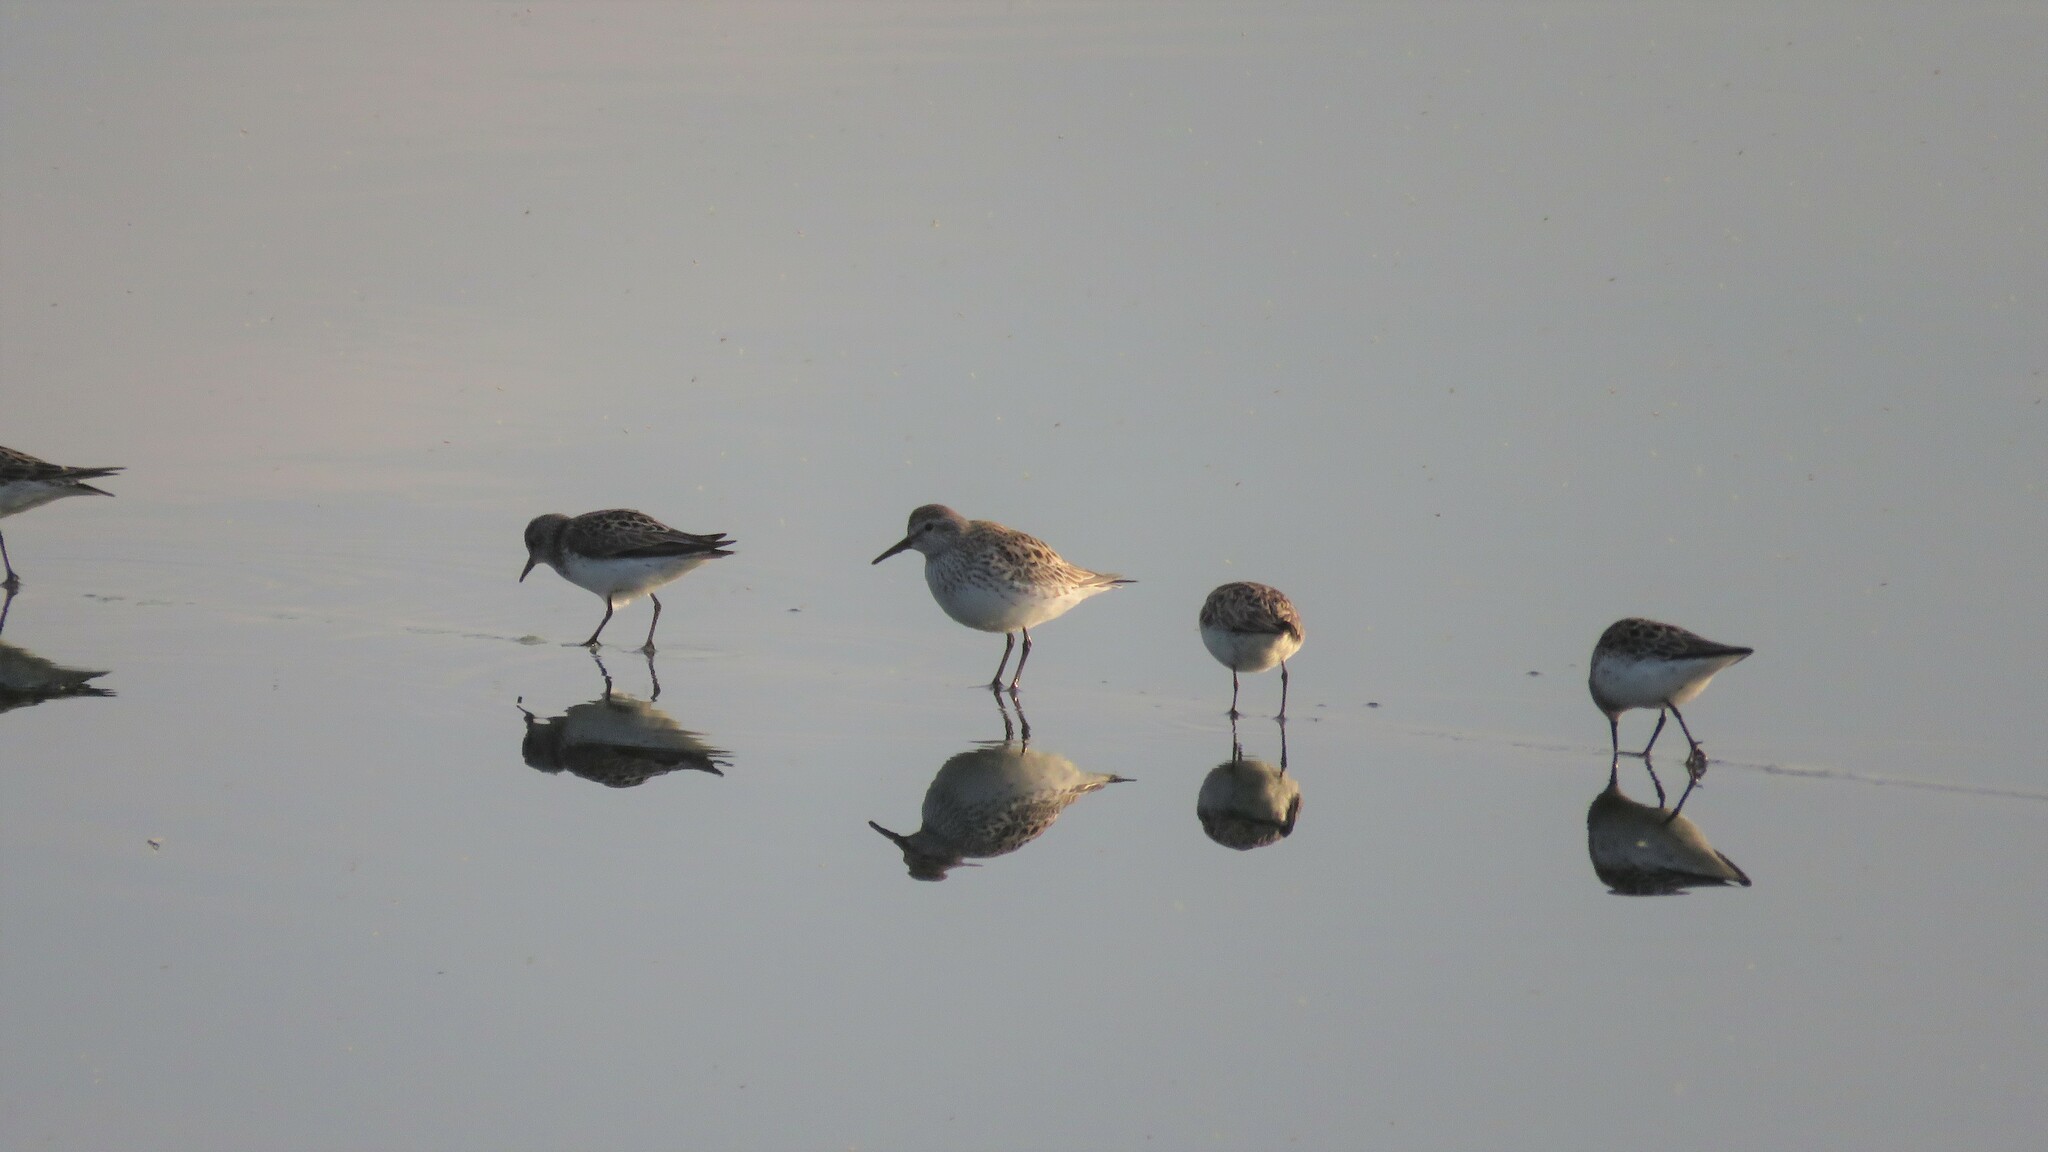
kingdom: Animalia
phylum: Chordata
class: Aves
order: Charadriiformes
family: Scolopacidae
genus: Calidris
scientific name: Calidris fuscicollis
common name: White-rumped sandpiper
